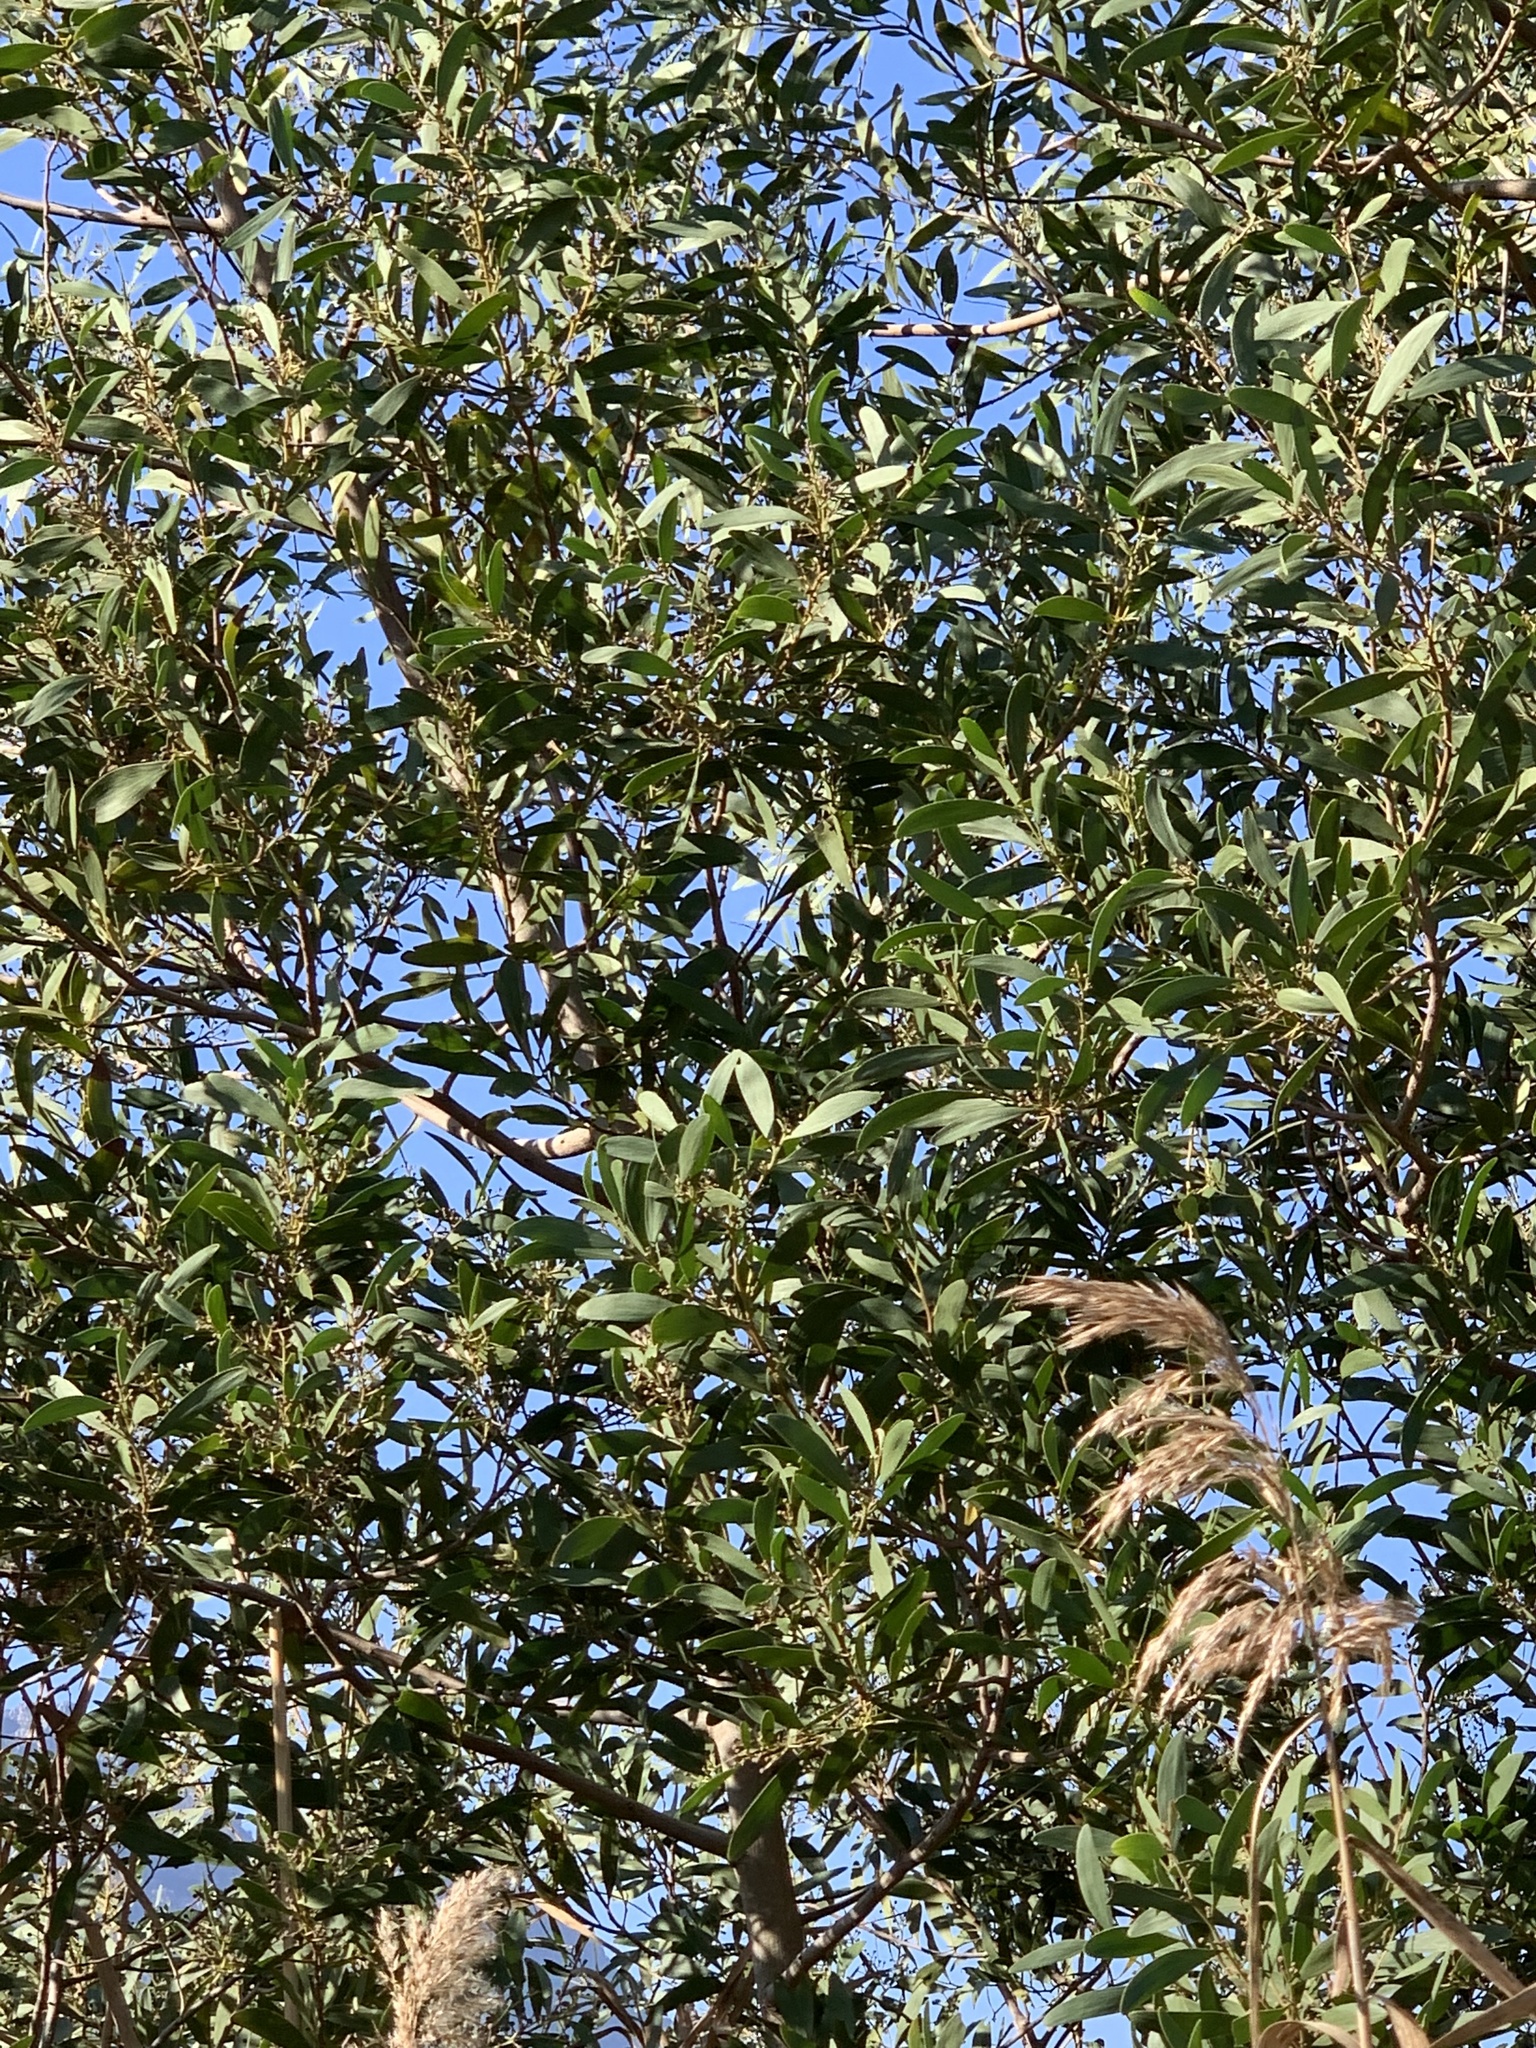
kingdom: Plantae
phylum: Tracheophyta
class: Magnoliopsida
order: Fabales
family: Fabaceae
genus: Acacia
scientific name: Acacia melanoxylon
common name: Blackwood
